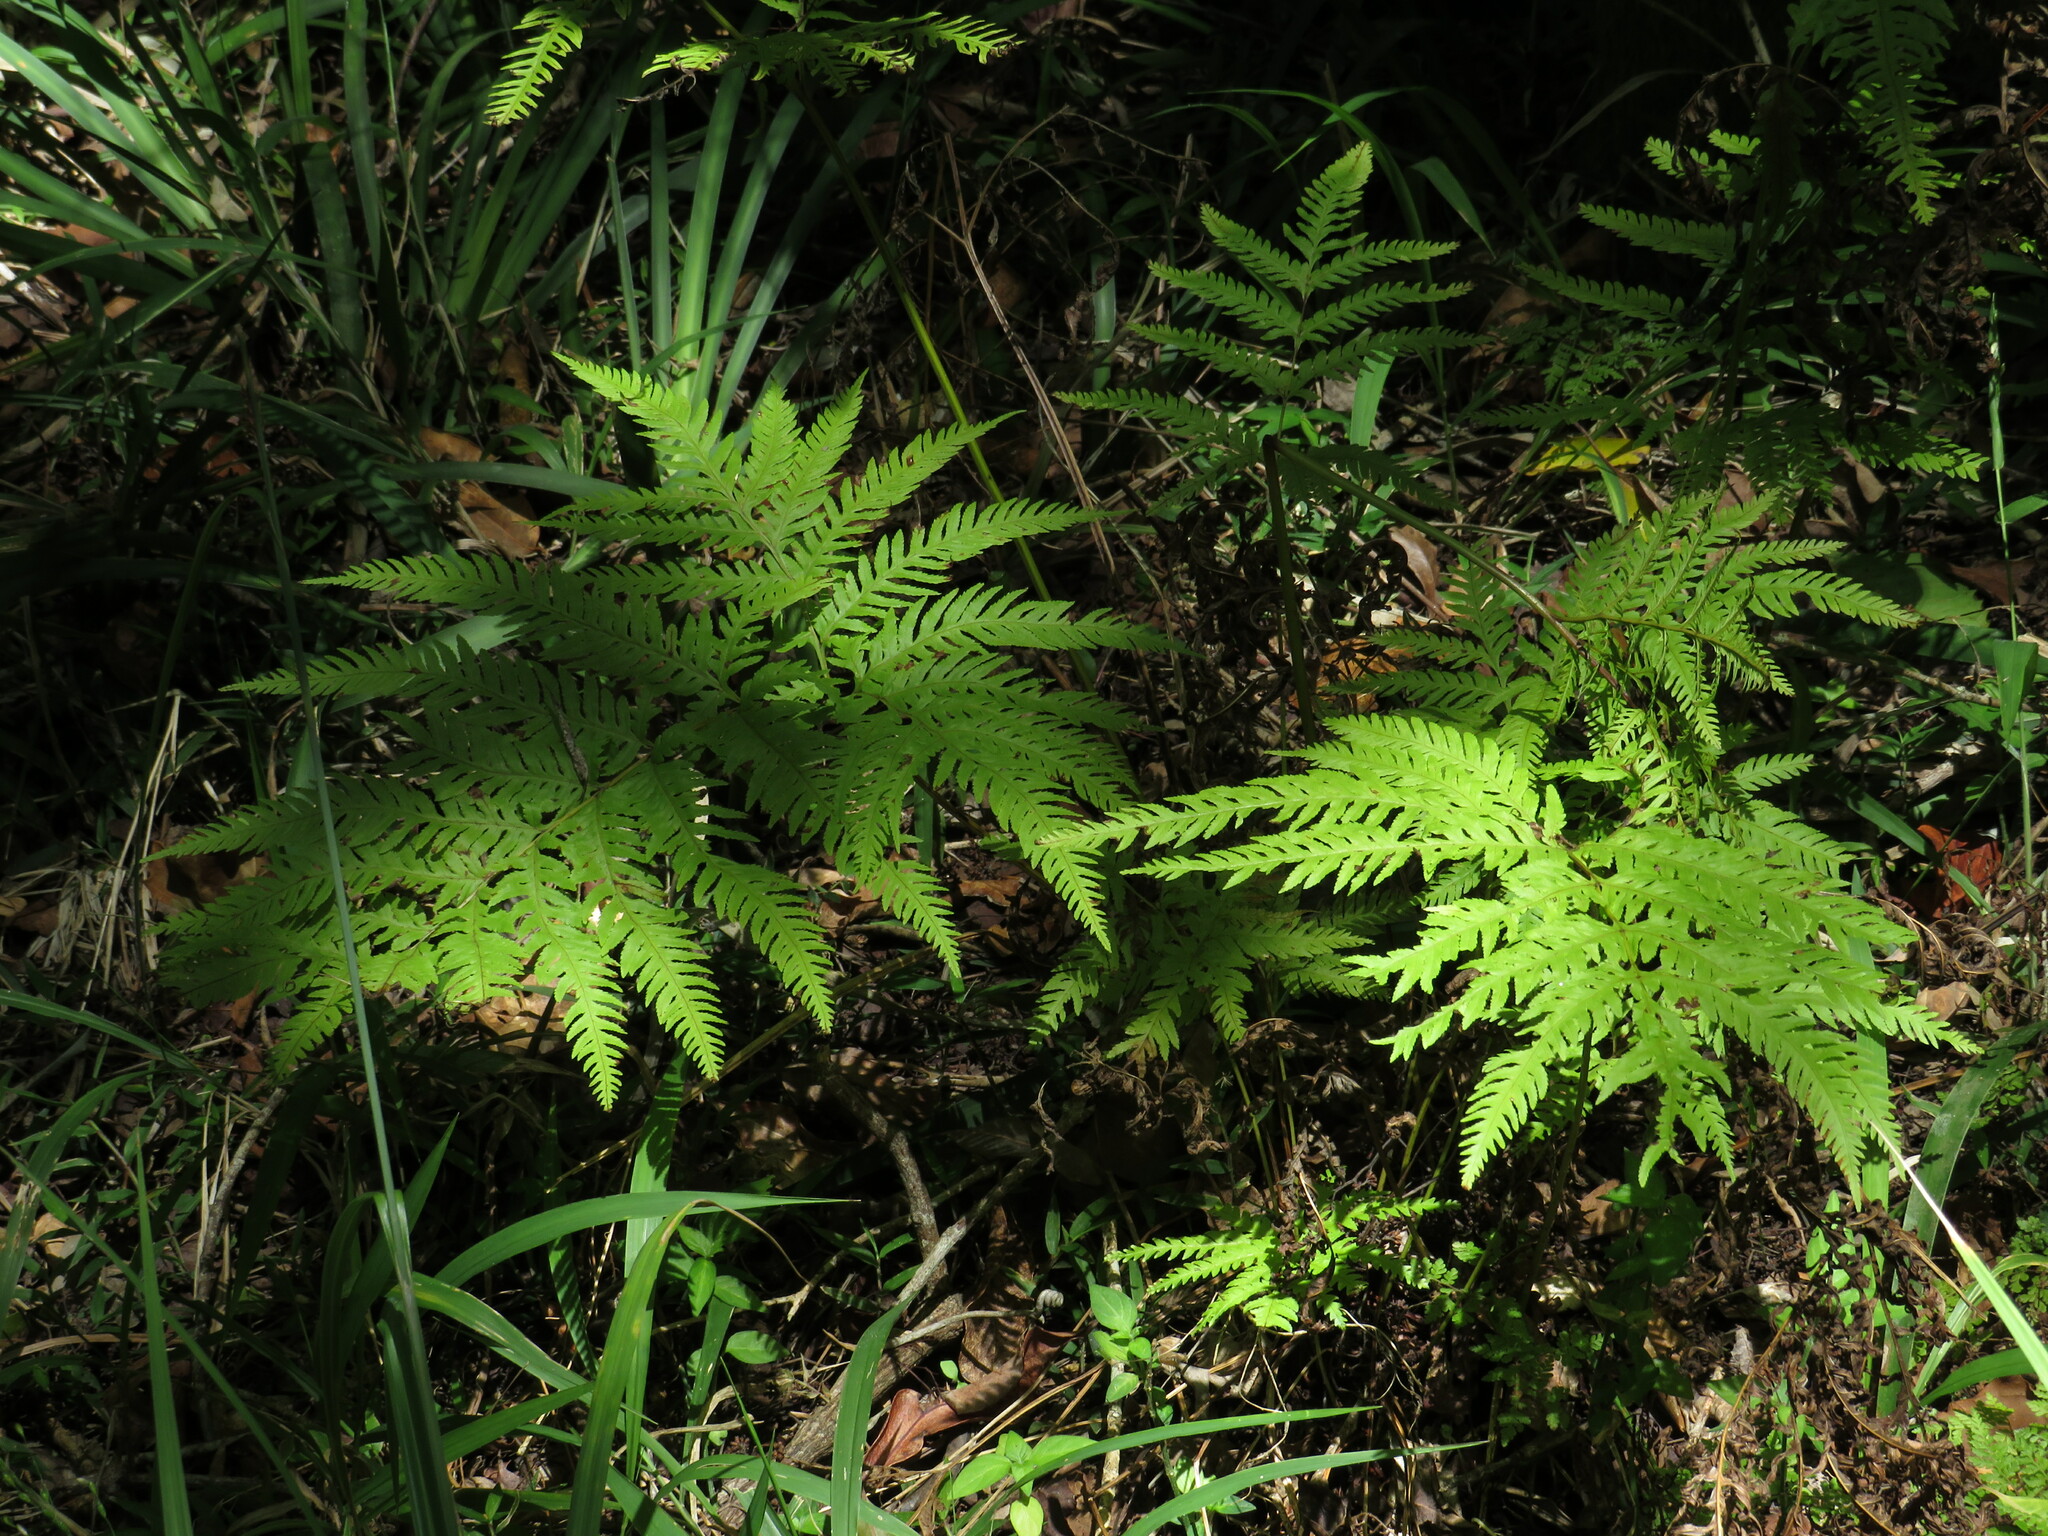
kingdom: Plantae
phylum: Tracheophyta
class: Polypodiopsida
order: Polypodiales
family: Pteridaceae
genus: Pteris
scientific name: Pteris dentata
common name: Toothed brake
